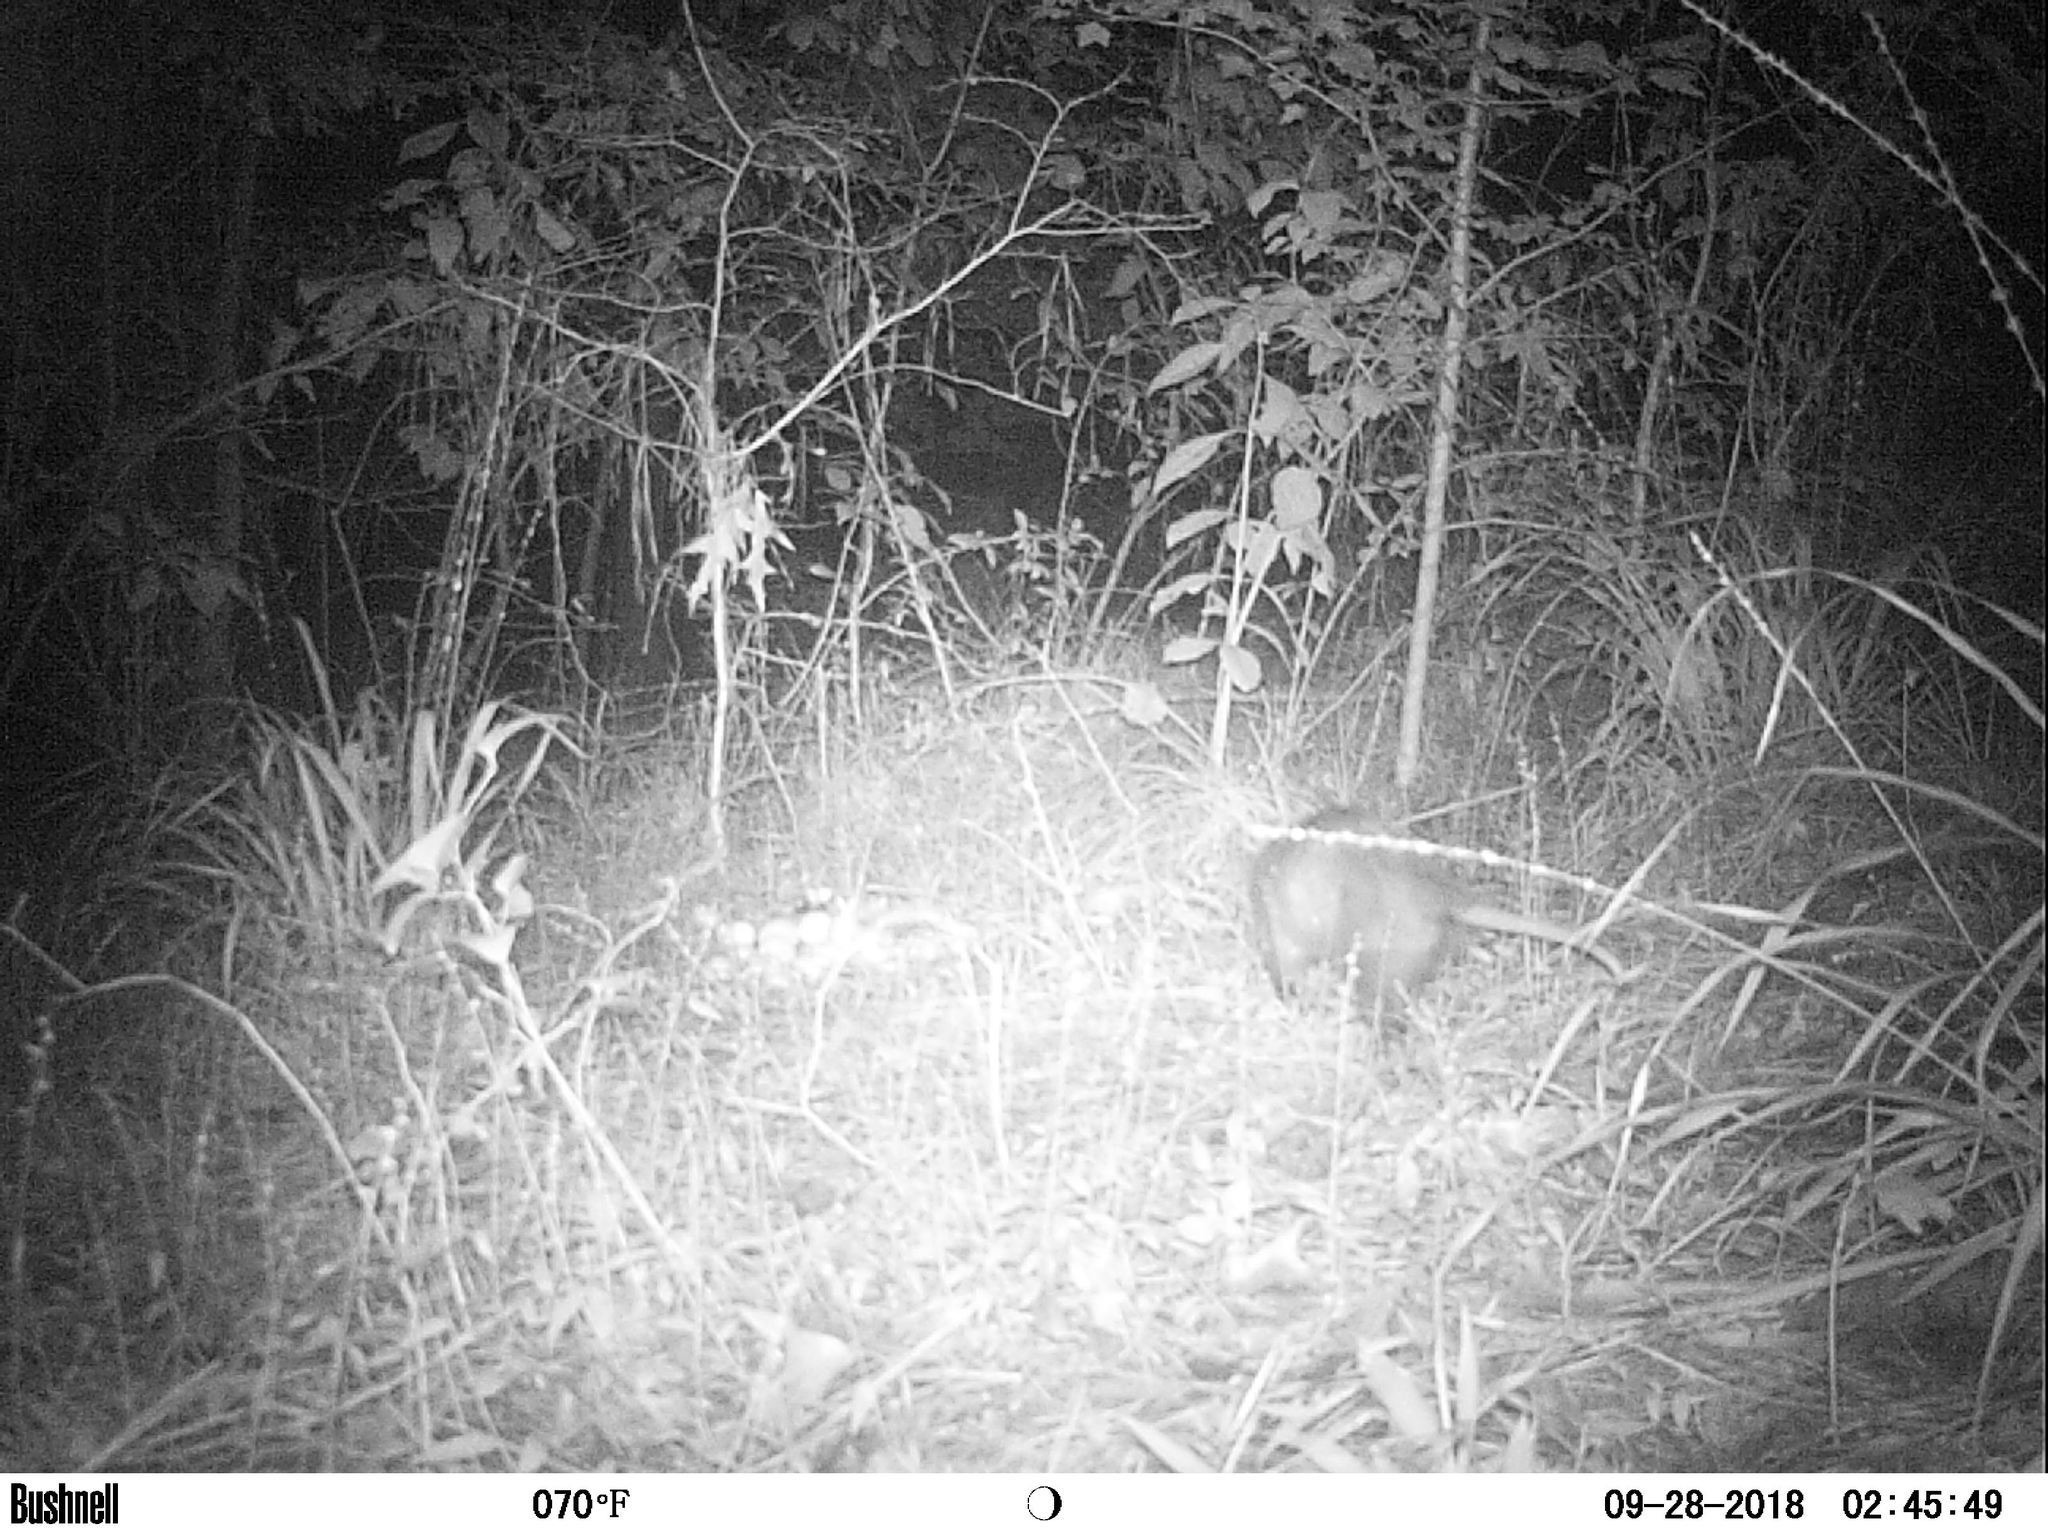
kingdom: Animalia
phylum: Chordata
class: Mammalia
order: Didelphimorphia
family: Didelphidae
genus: Didelphis
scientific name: Didelphis virginiana
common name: Virginia opossum
